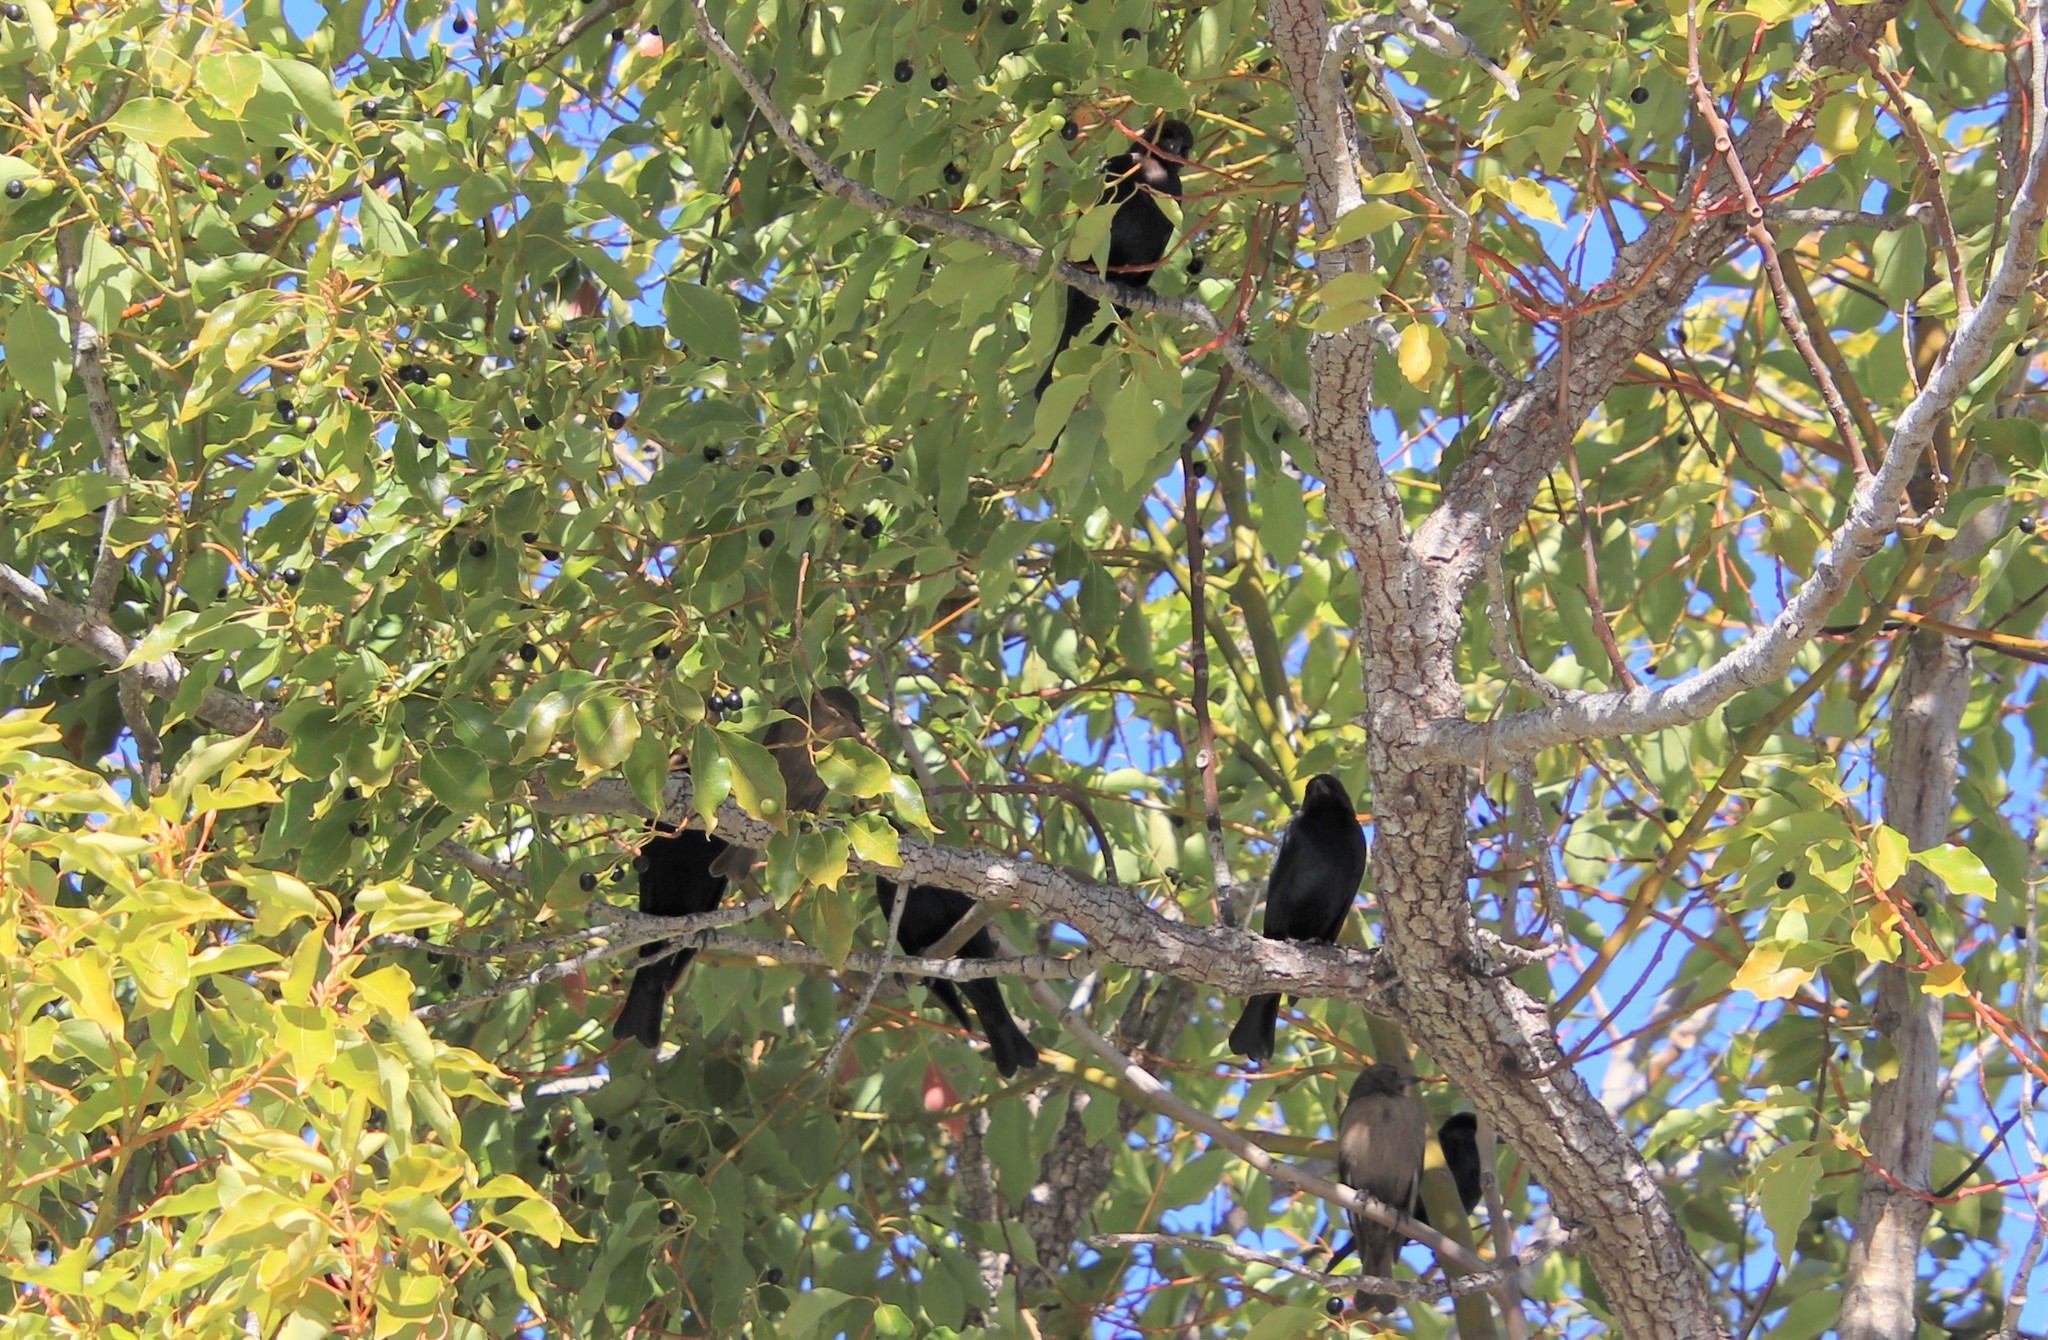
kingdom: Animalia
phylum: Chordata
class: Aves
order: Passeriformes
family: Icteridae
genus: Molothrus
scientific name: Molothrus ater
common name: Brown-headed cowbird
